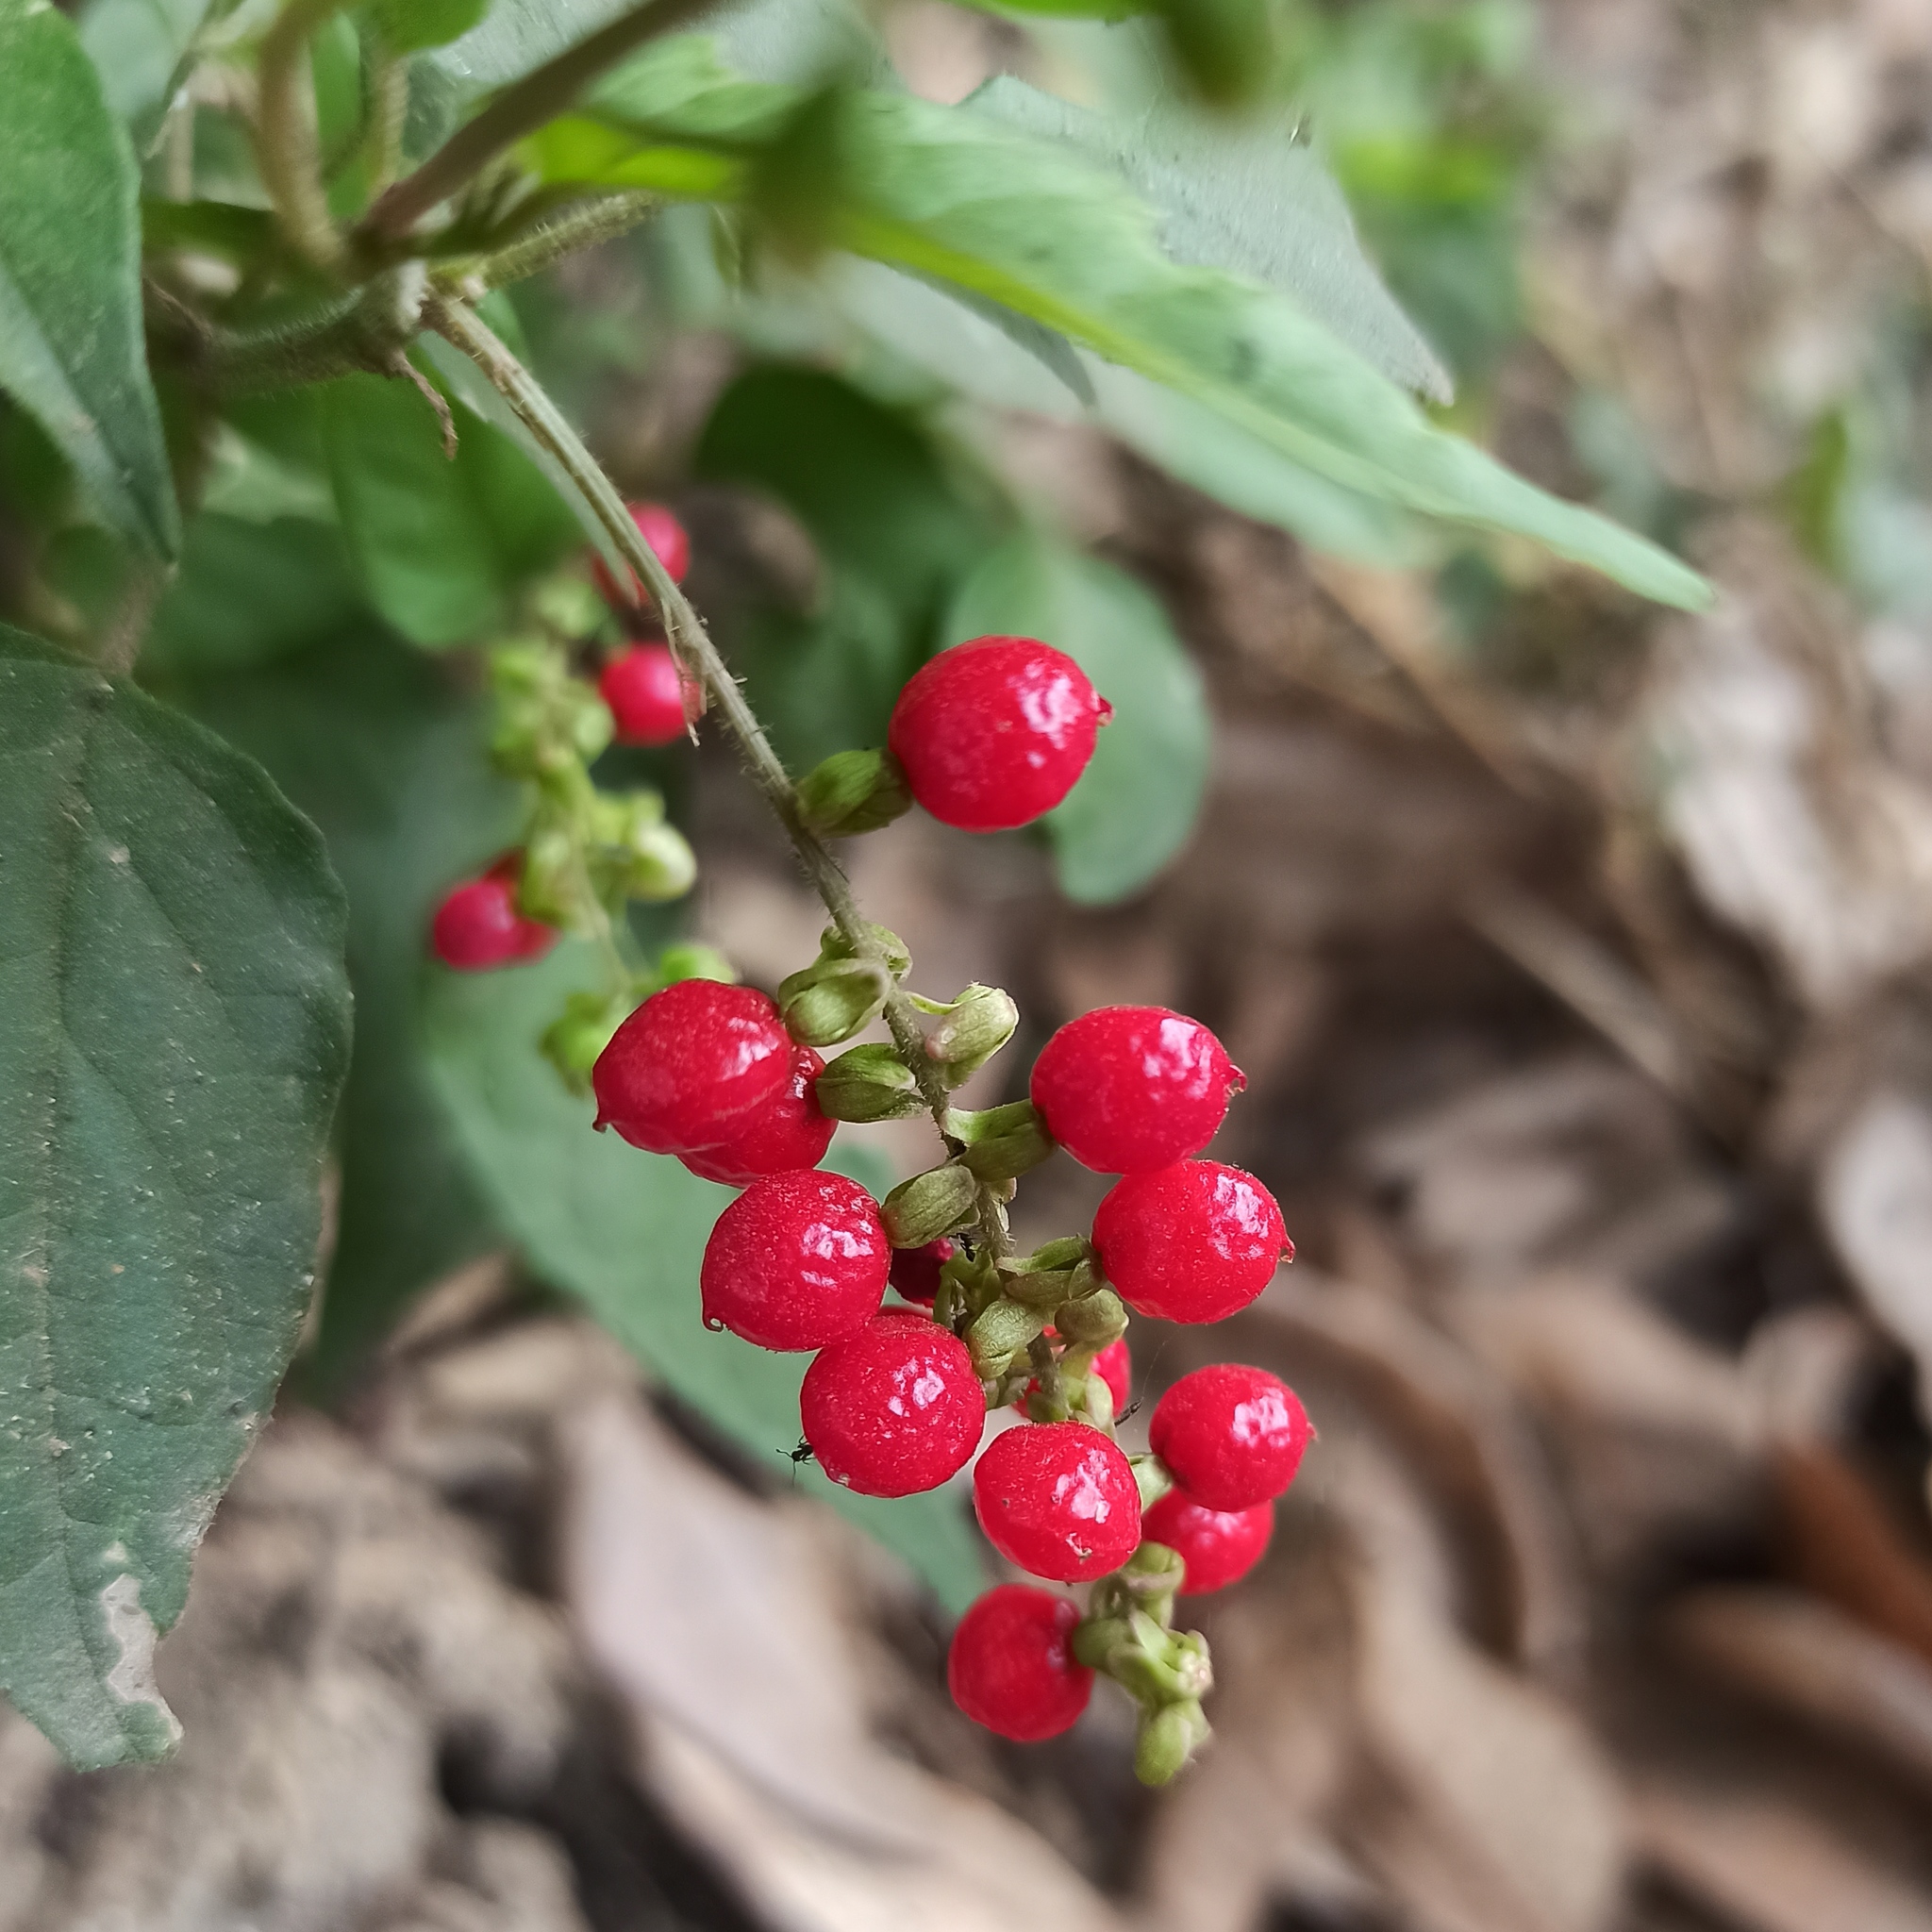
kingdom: Plantae
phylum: Tracheophyta
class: Magnoliopsida
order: Caryophyllales
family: Phytolaccaceae
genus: Rivina
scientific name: Rivina humilis
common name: Rougeplant
